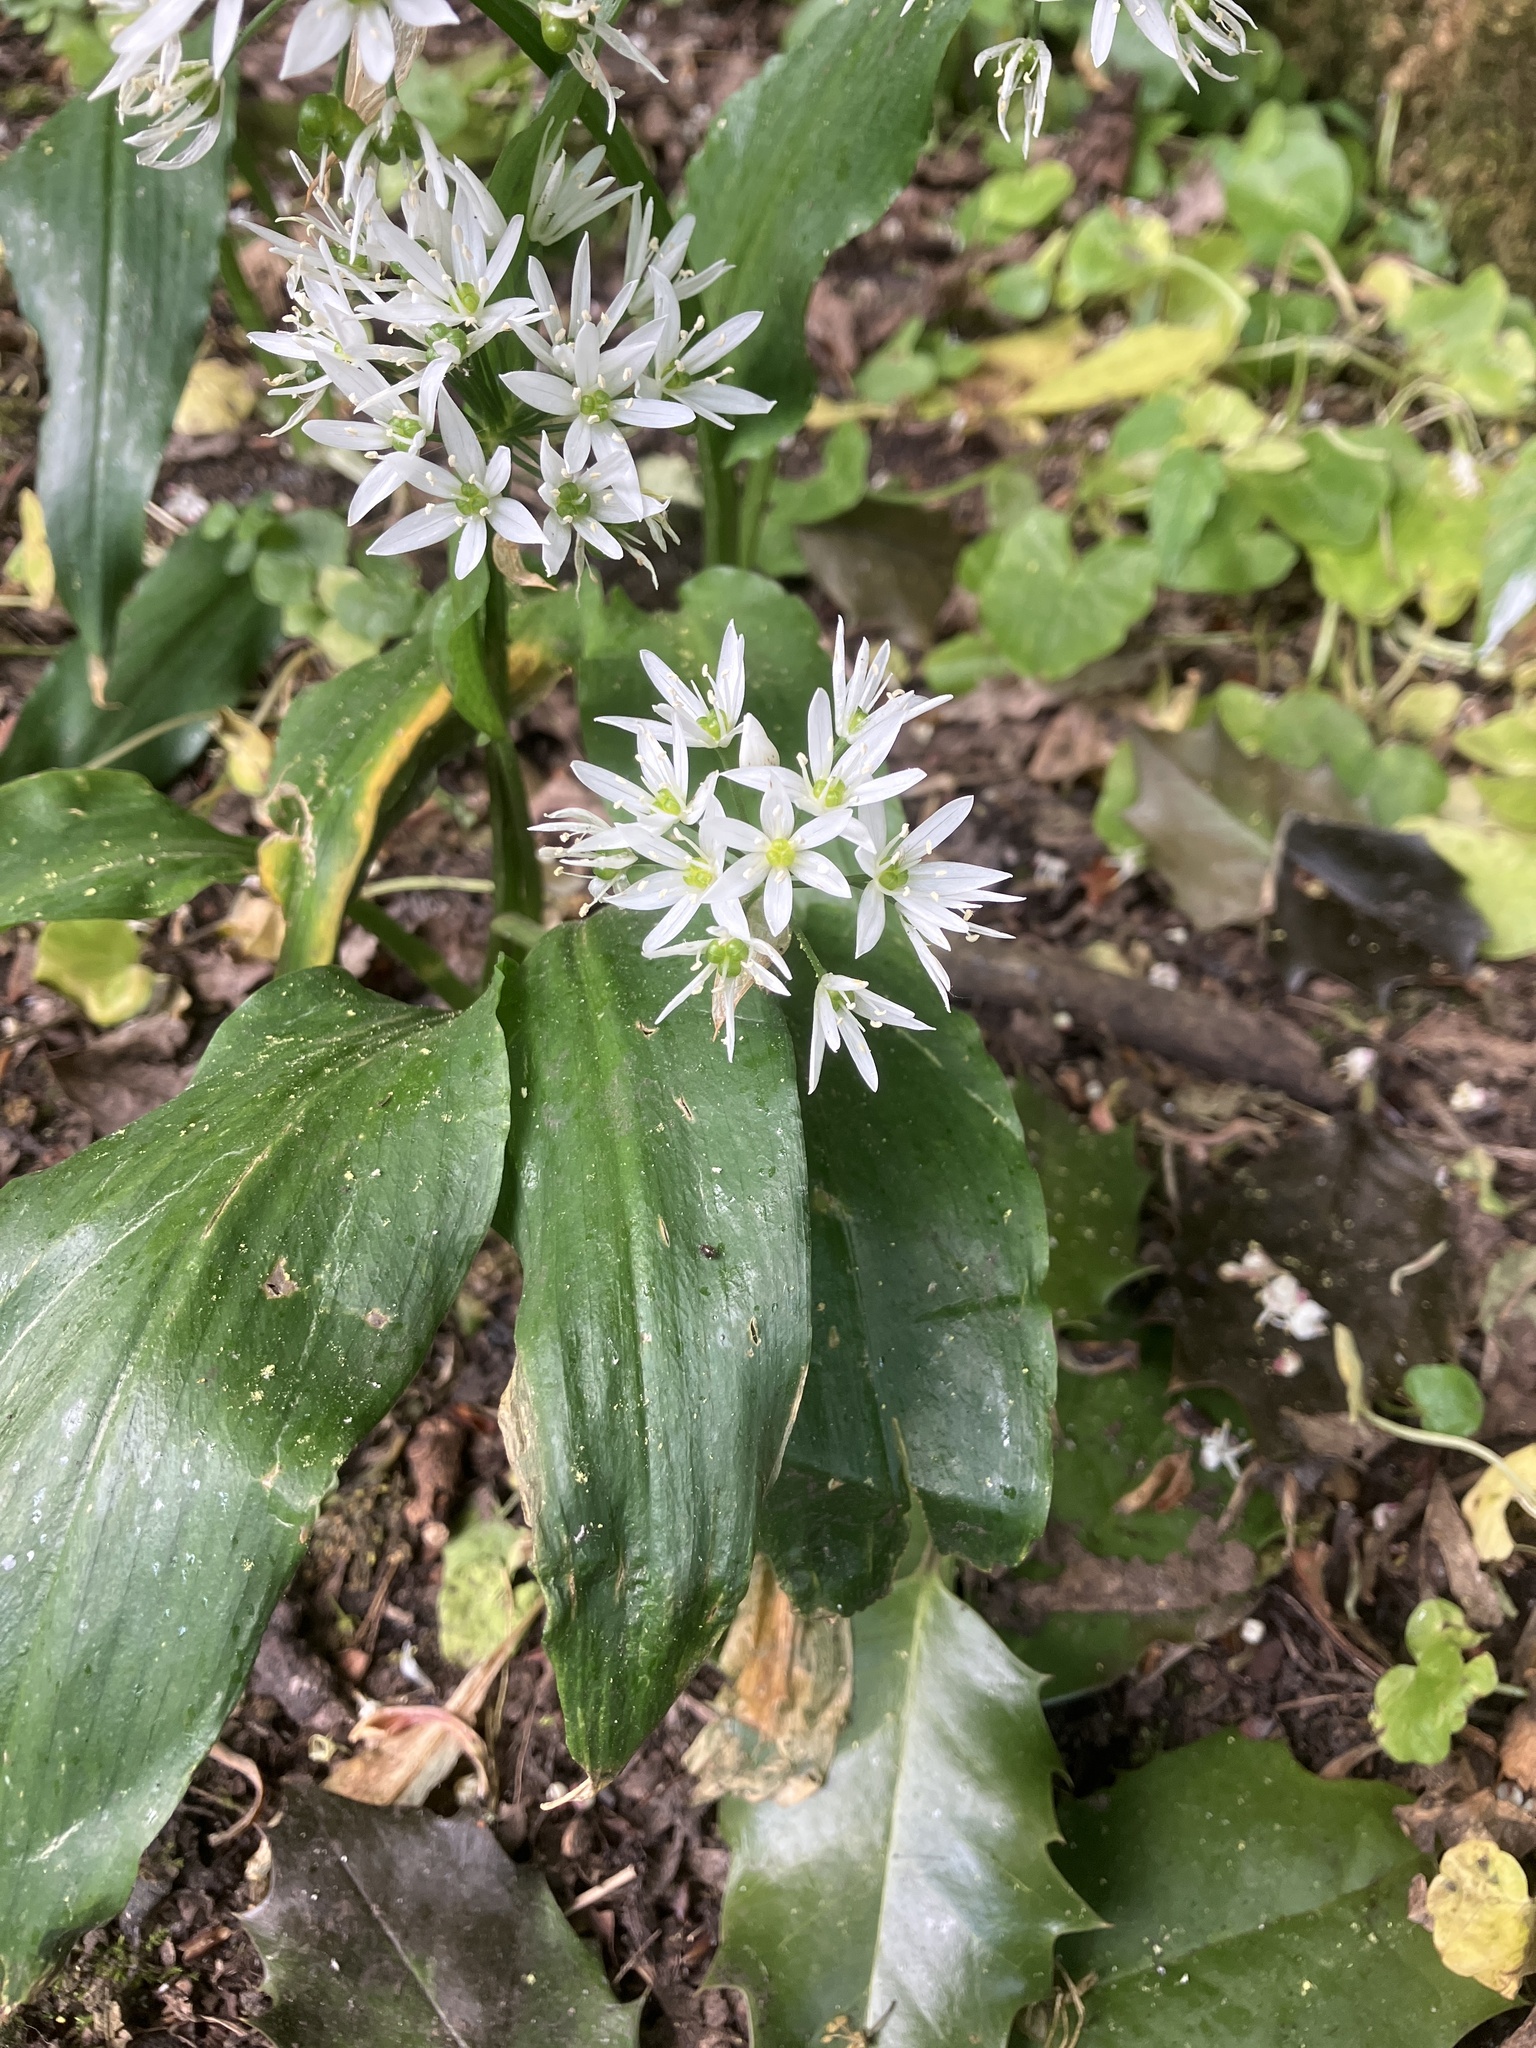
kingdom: Plantae
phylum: Tracheophyta
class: Liliopsida
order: Asparagales
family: Amaryllidaceae
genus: Allium
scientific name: Allium ursinum
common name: Ramsons
